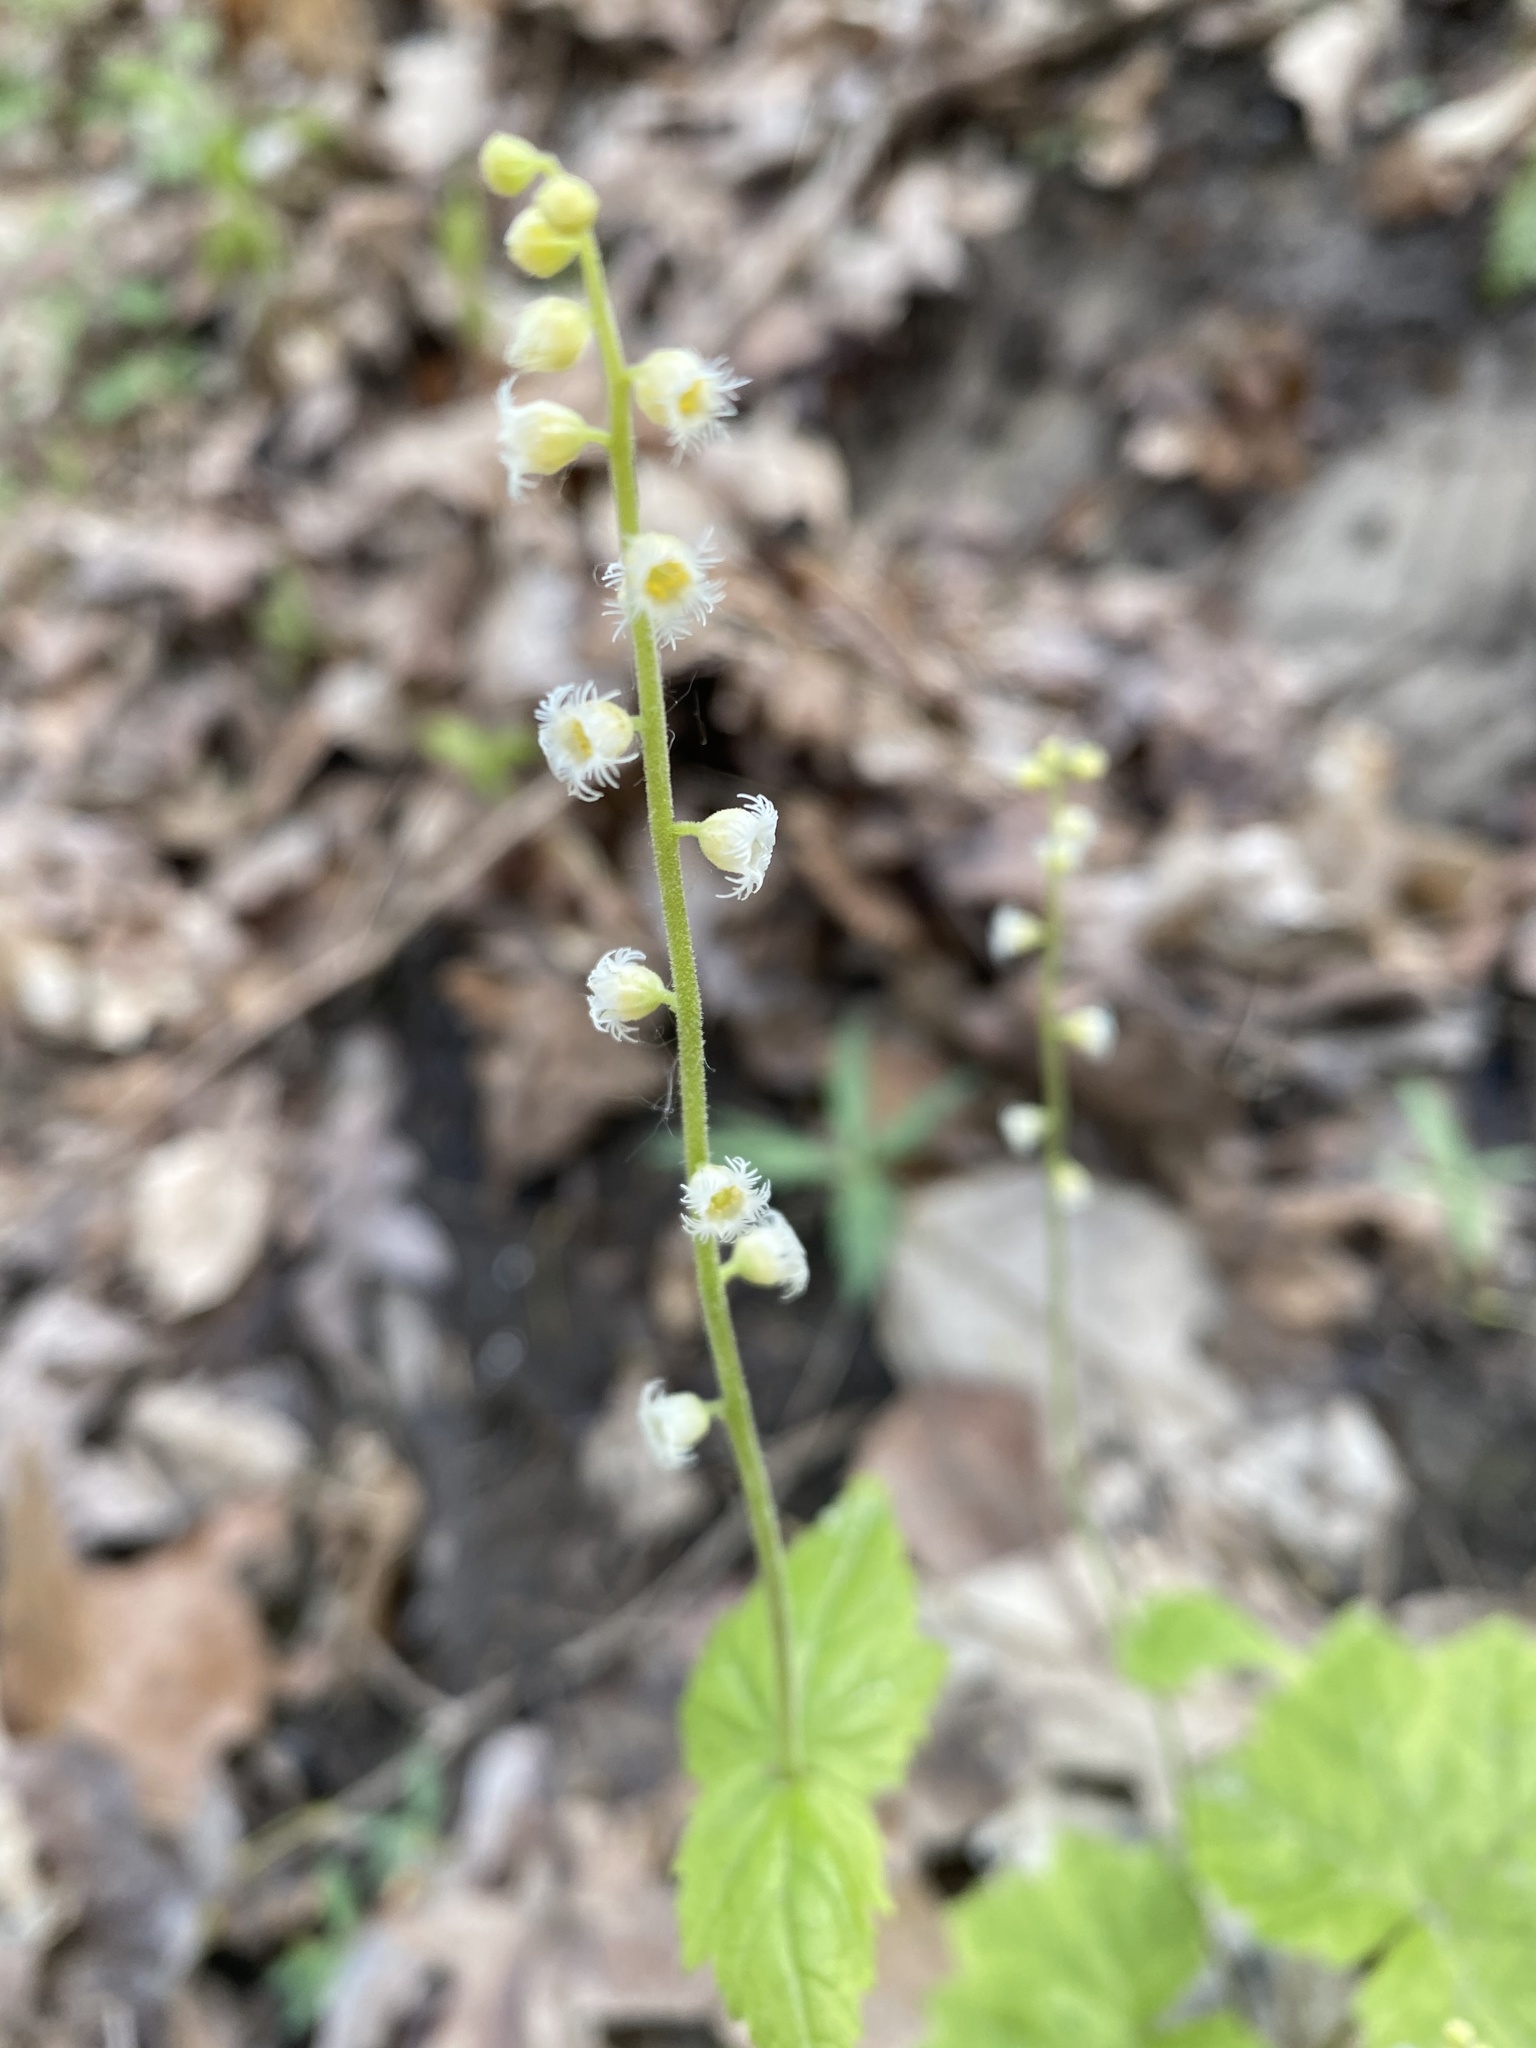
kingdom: Plantae
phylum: Tracheophyta
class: Magnoliopsida
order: Saxifragales
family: Saxifragaceae
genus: Mitella
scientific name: Mitella diphylla
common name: Coolwort
